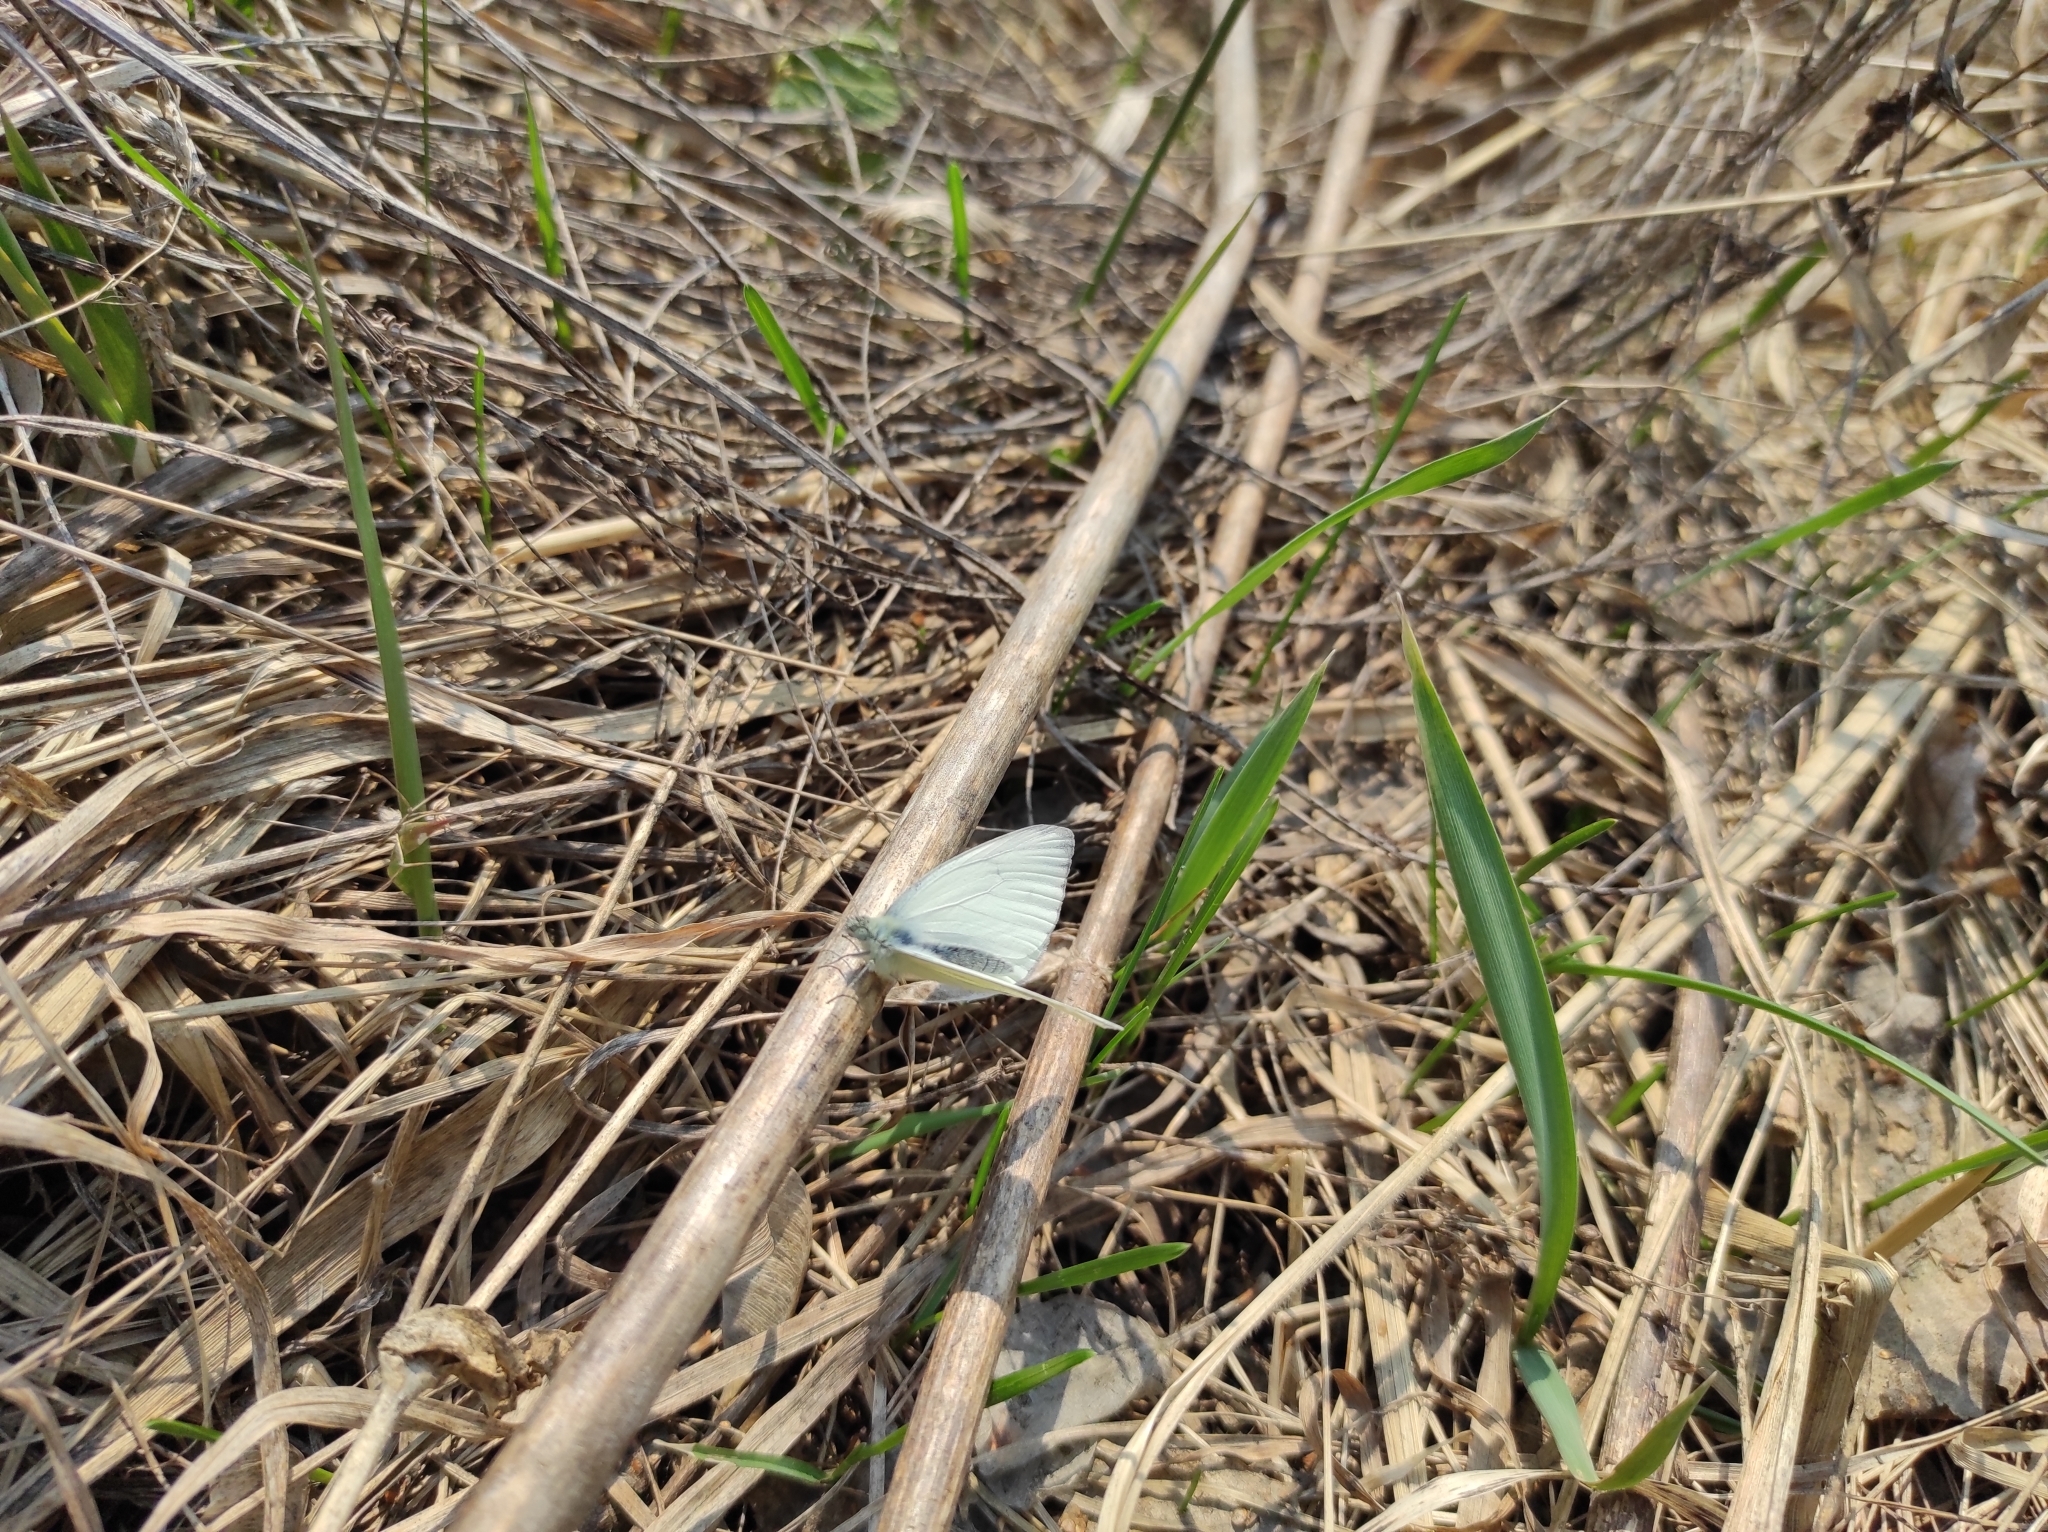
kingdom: Animalia
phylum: Arthropoda
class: Insecta
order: Lepidoptera
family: Pieridae
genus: Pieris
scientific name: Pieris napi
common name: Green-veined white
